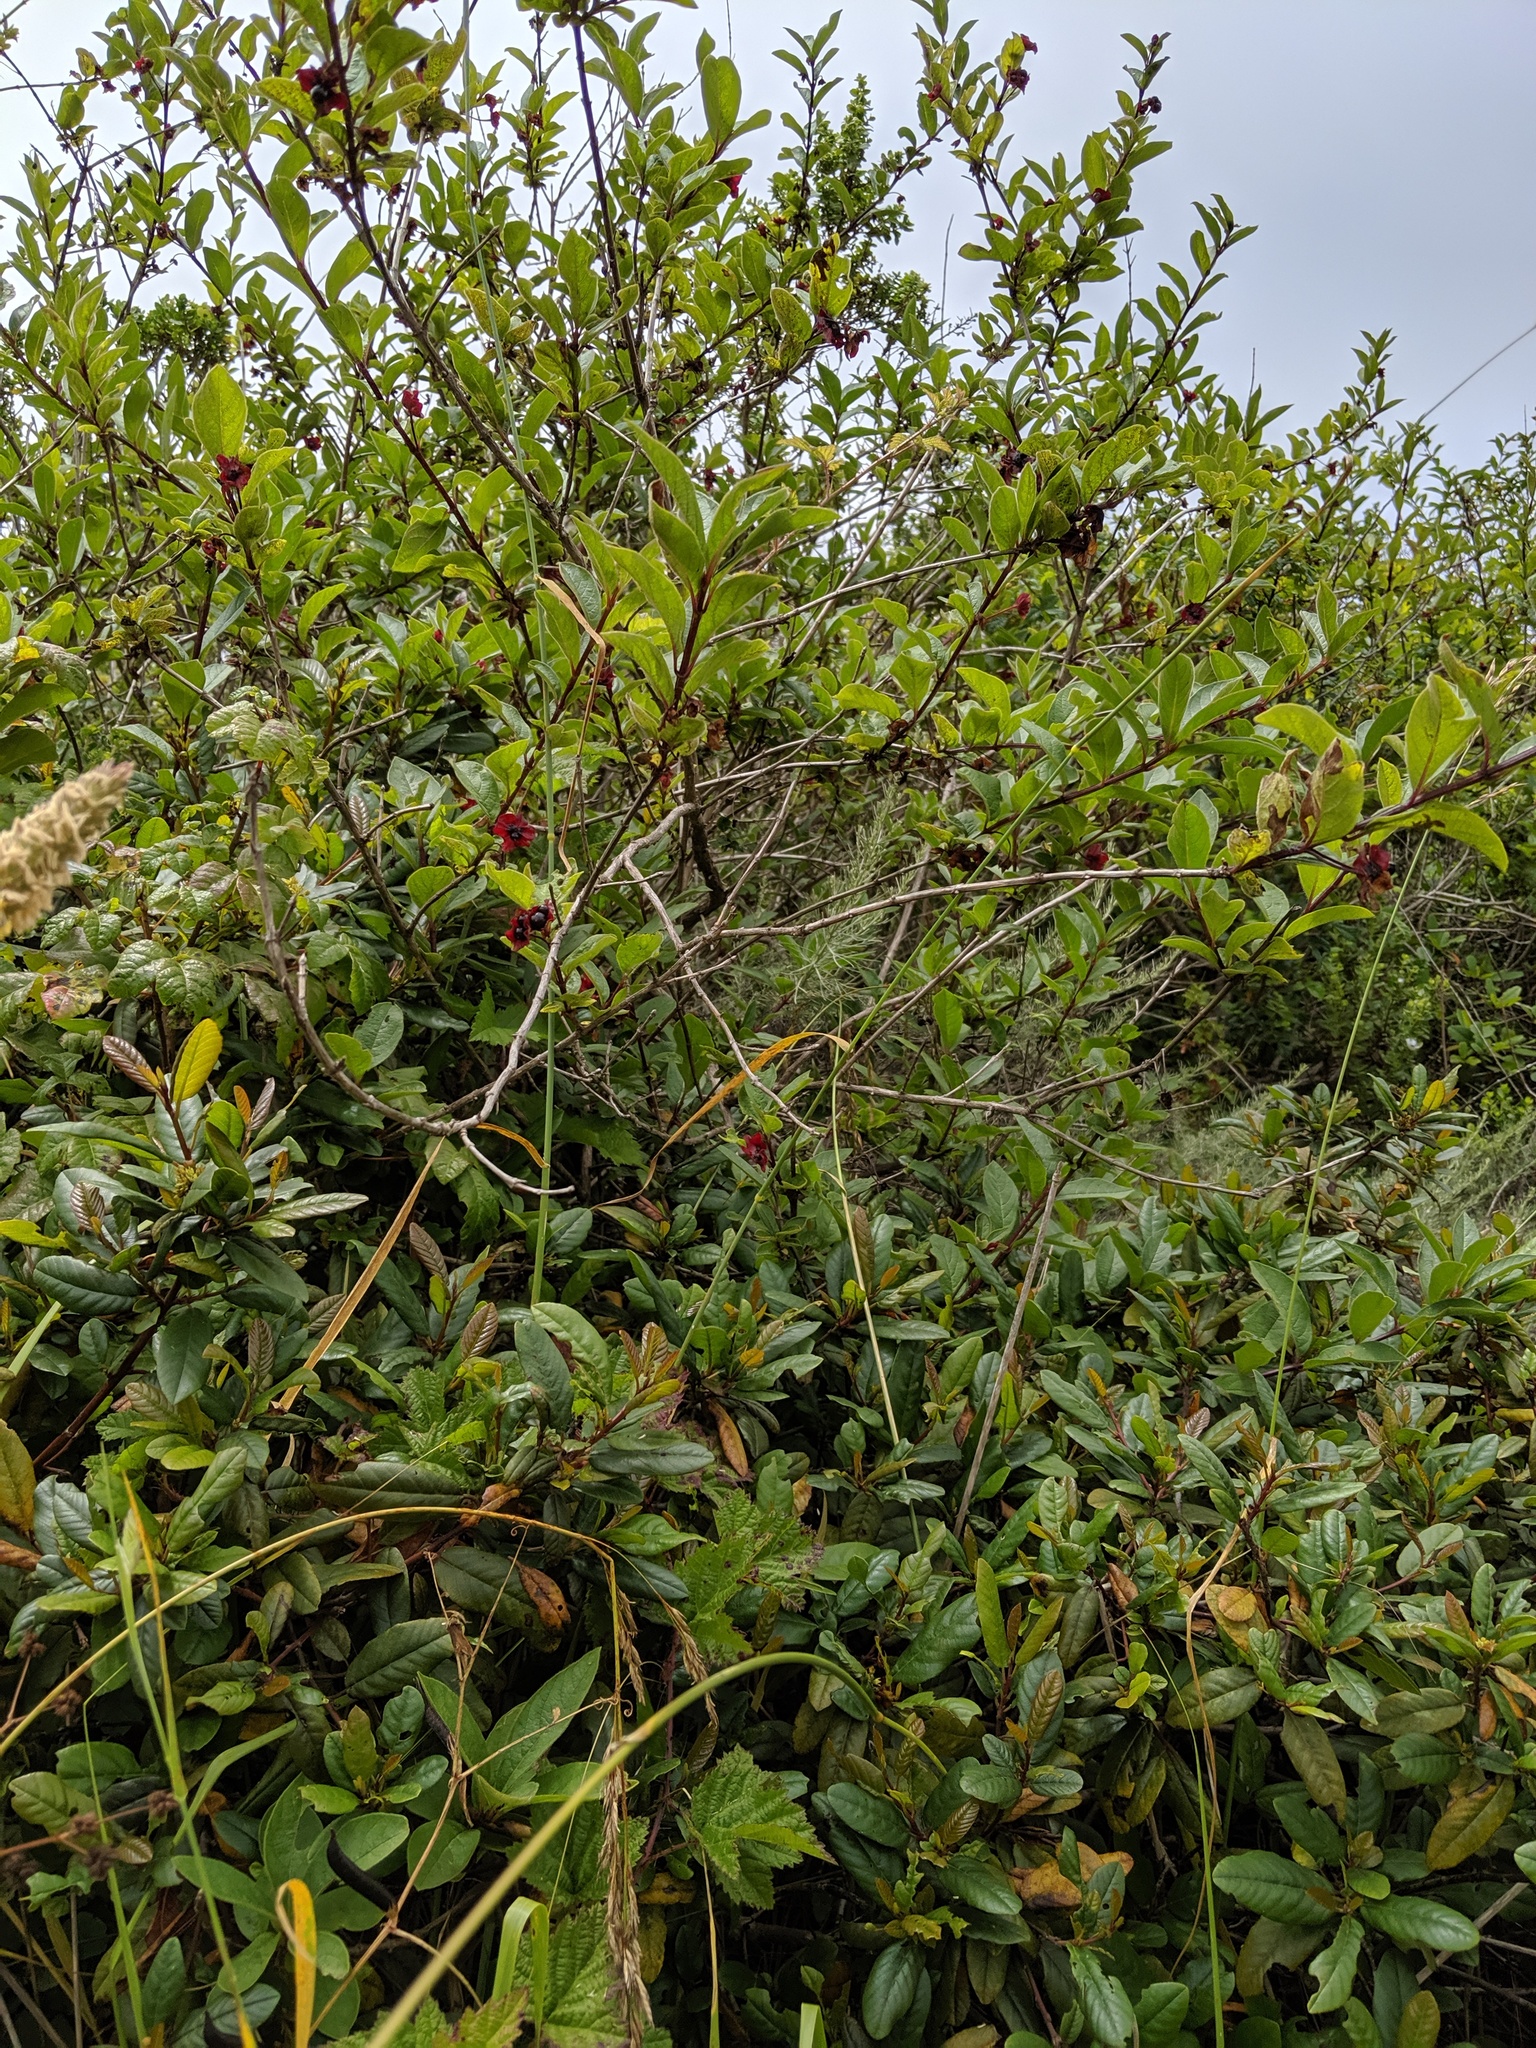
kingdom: Plantae
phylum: Tracheophyta
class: Magnoliopsida
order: Dipsacales
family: Caprifoliaceae
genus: Lonicera
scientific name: Lonicera involucrata
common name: Californian honeysuckle
